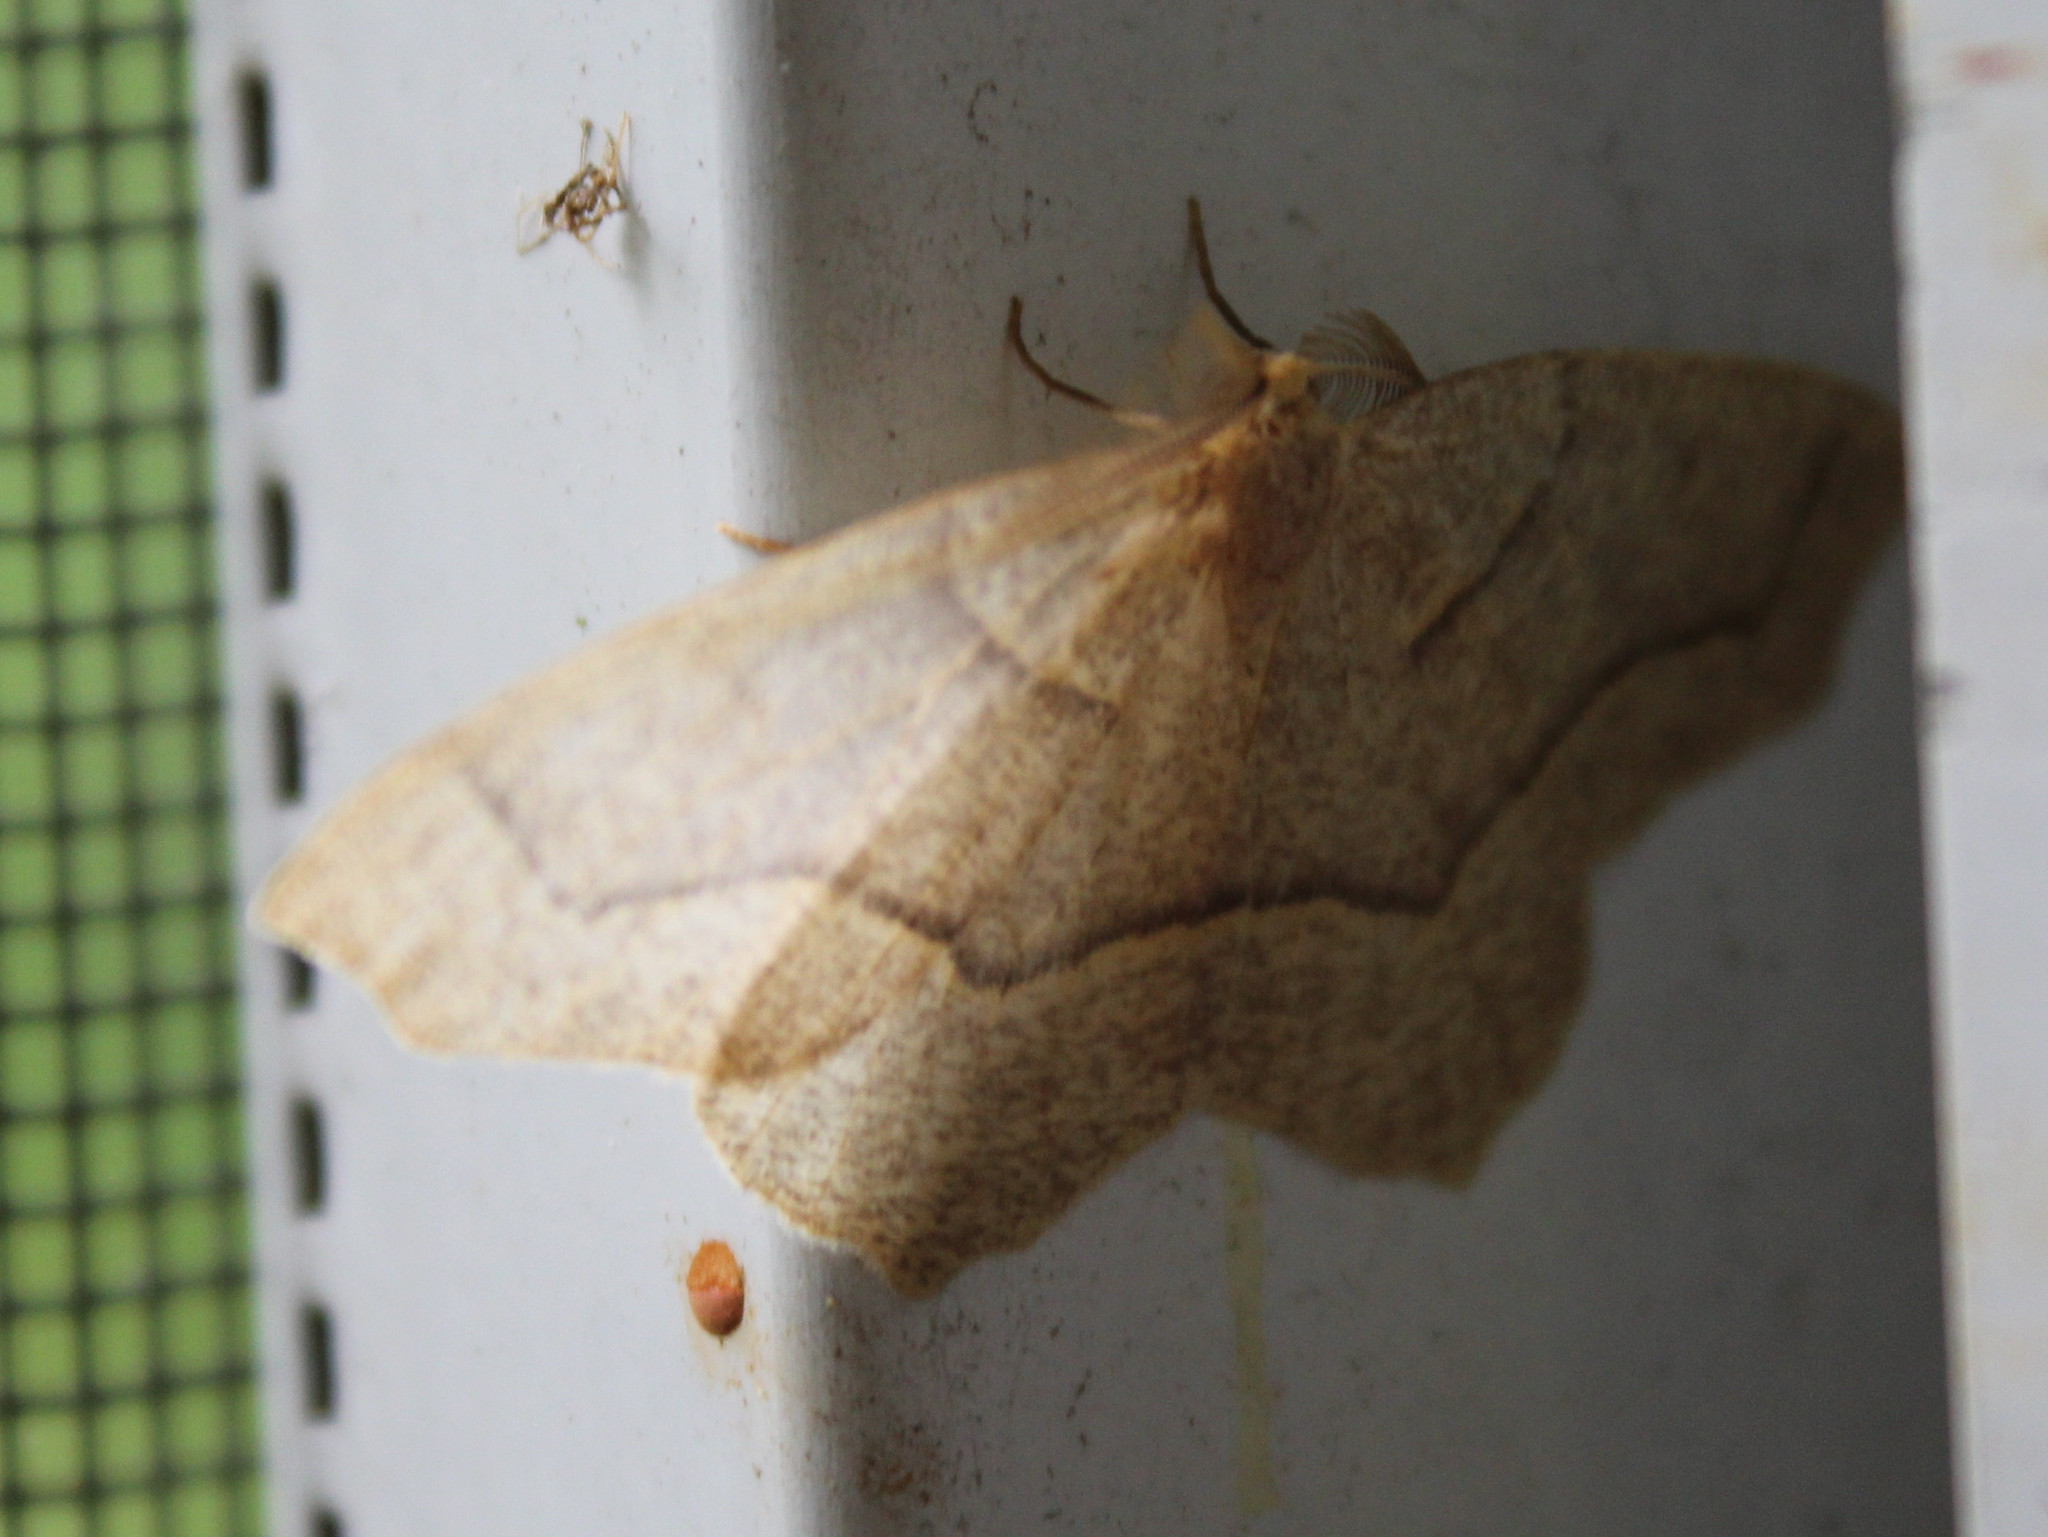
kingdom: Animalia
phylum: Arthropoda
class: Insecta
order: Lepidoptera
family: Geometridae
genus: Lambdina
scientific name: Lambdina fiscellaria
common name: Hemlock looper
